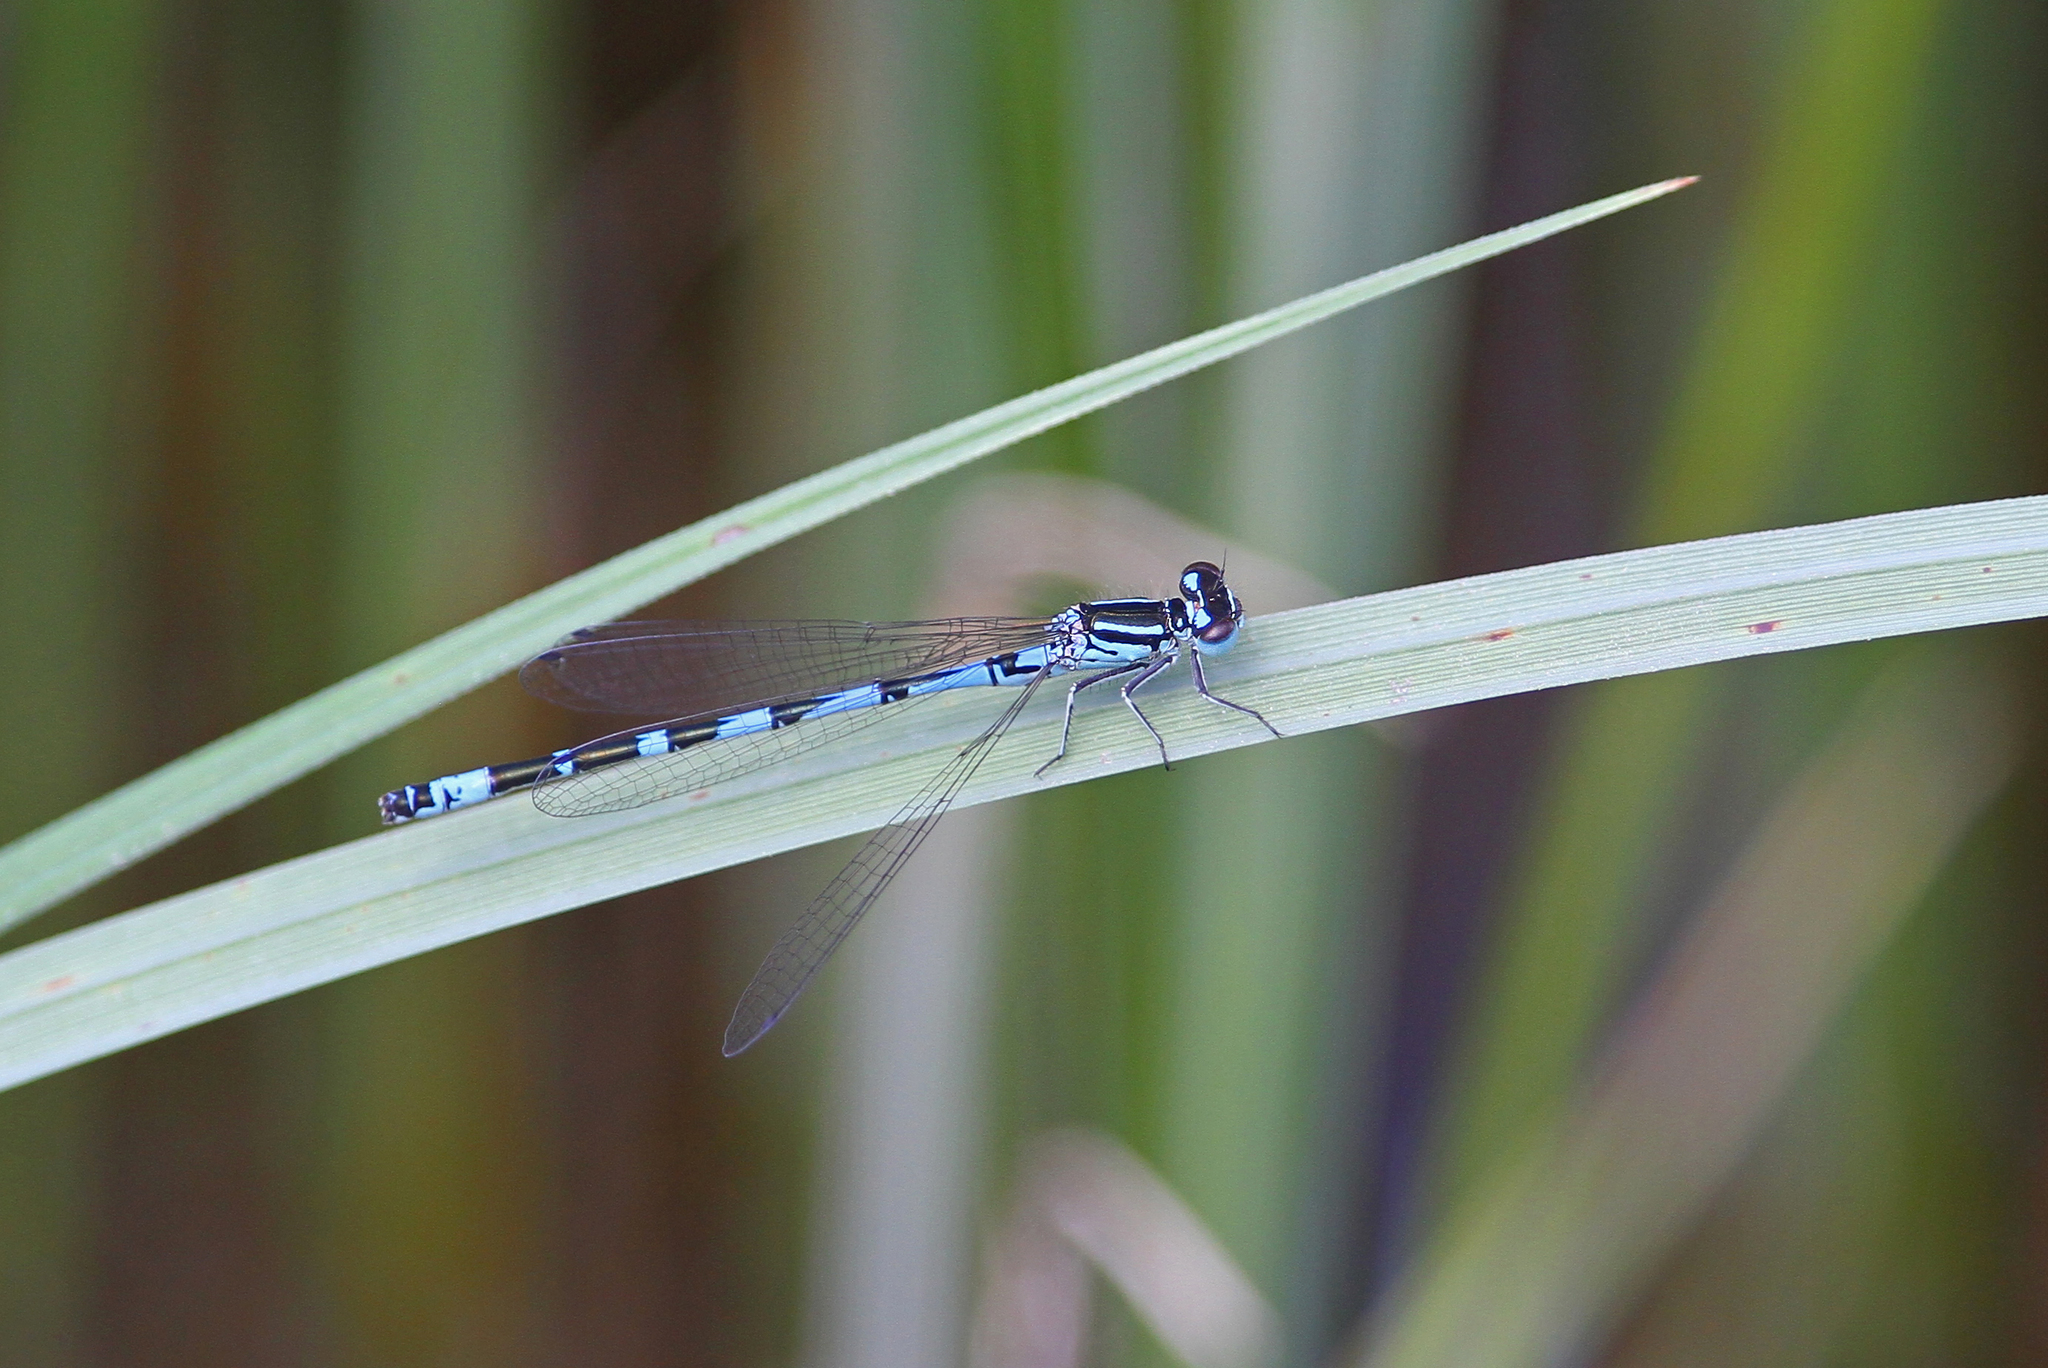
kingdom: Animalia
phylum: Arthropoda
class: Insecta
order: Odonata
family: Coenagrionidae
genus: Coenagrion
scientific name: Coenagrion ornatum
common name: Ornate bluet
